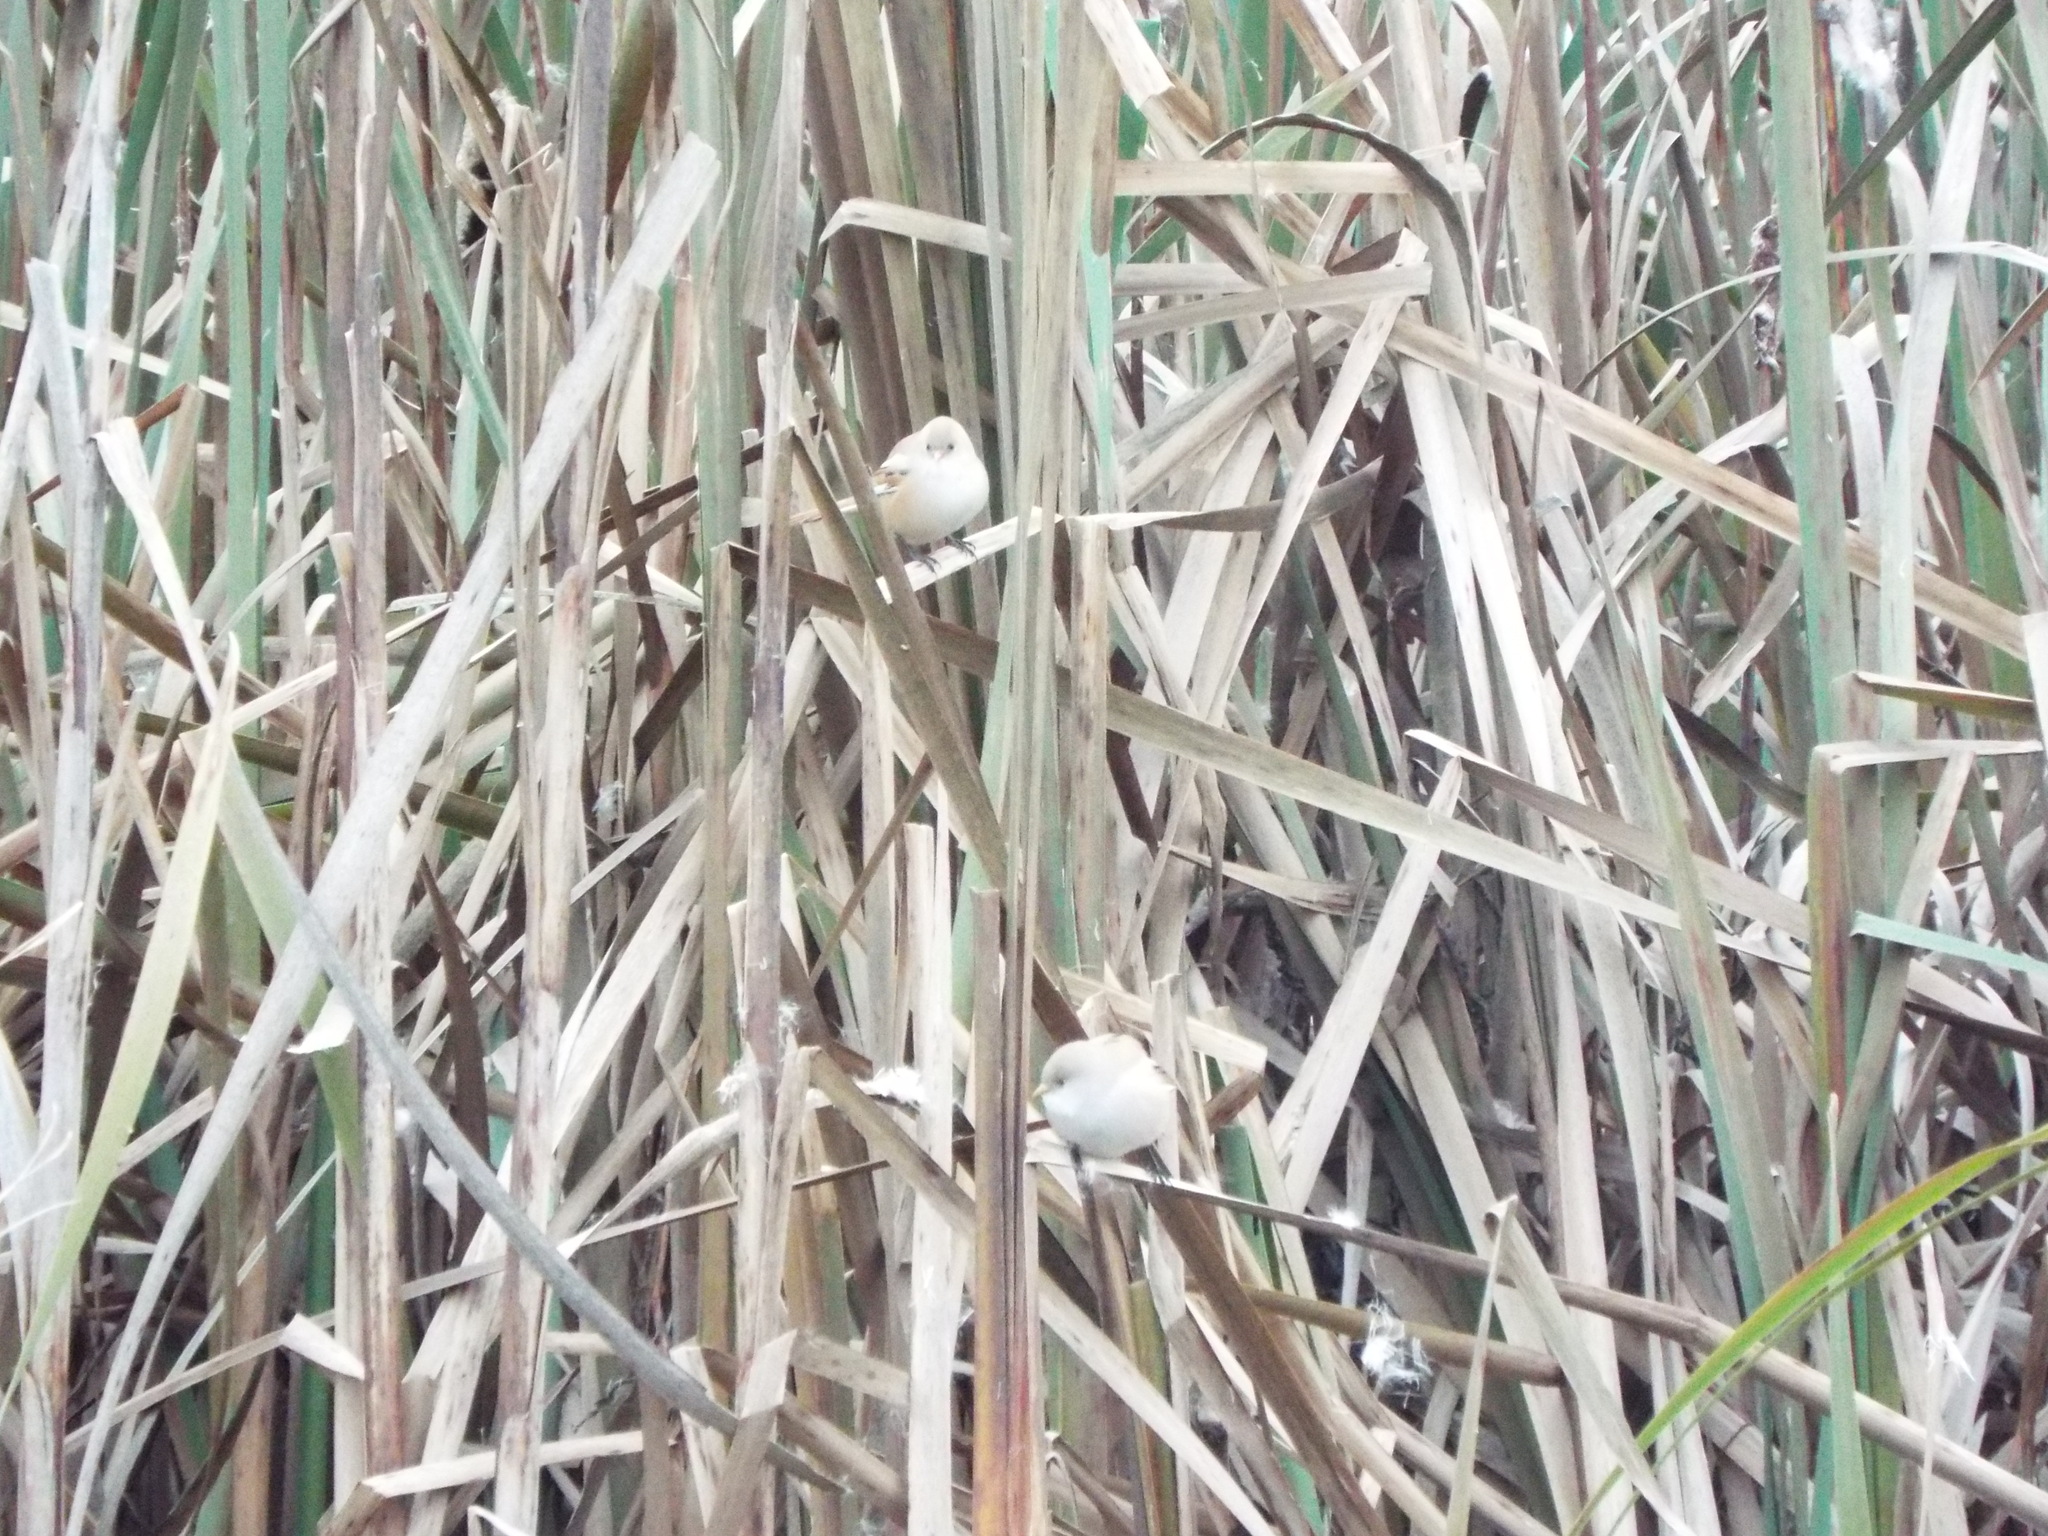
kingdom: Animalia
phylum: Chordata
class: Aves
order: Passeriformes
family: Panuridae
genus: Panurus
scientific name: Panurus biarmicus
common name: Bearded reedling
